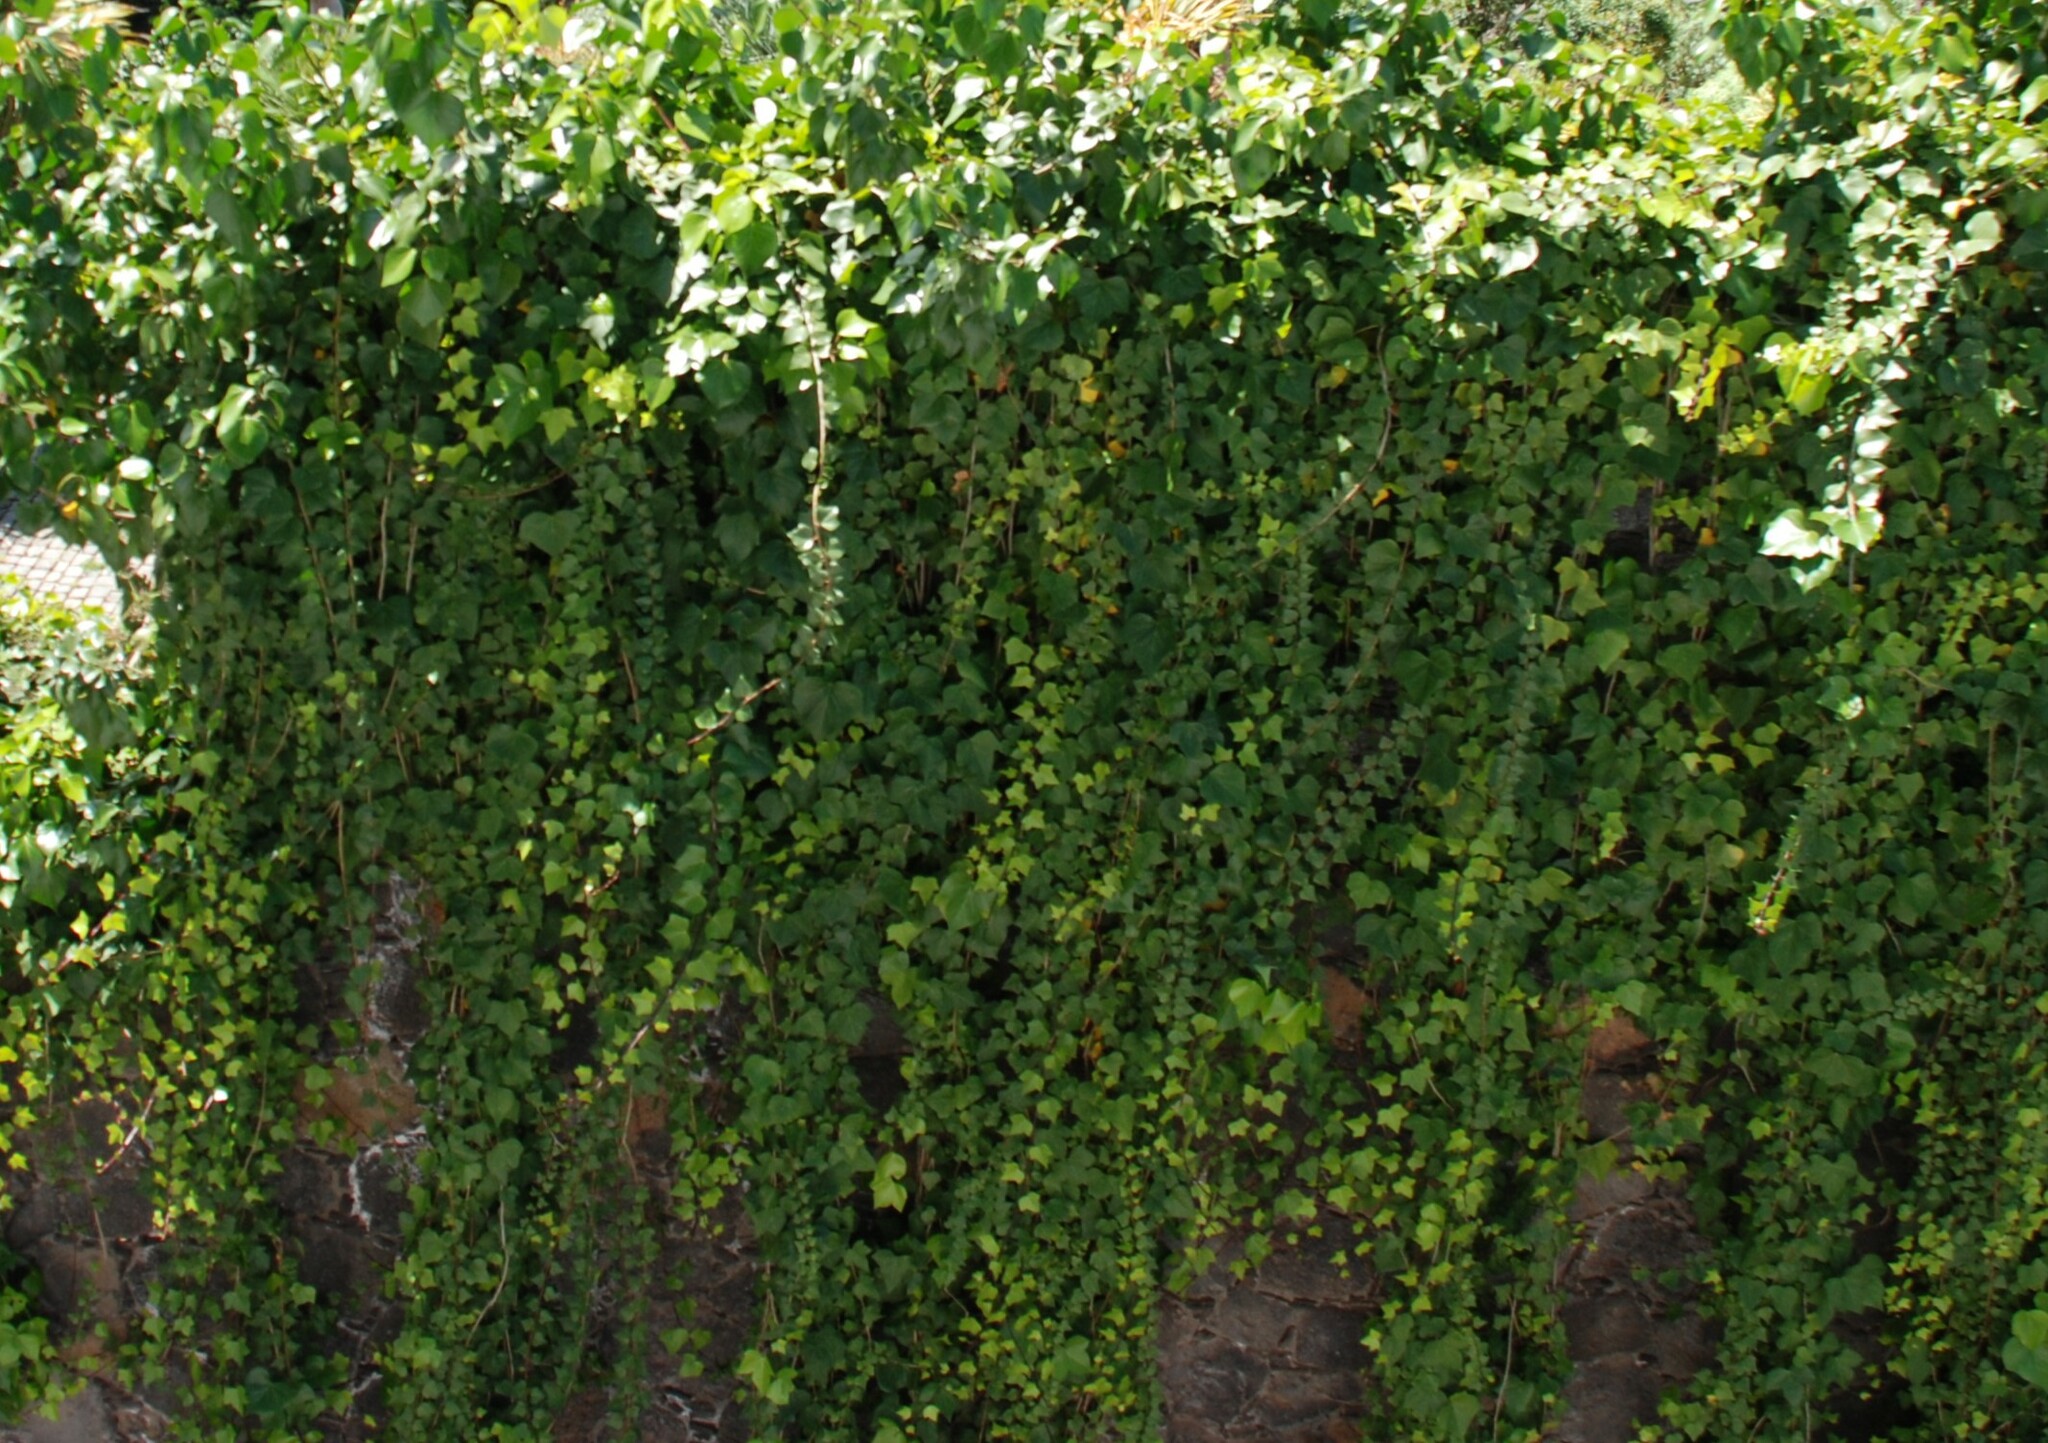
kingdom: Plantae
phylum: Tracheophyta
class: Magnoliopsida
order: Apiales
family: Araliaceae
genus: Hedera
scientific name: Hedera canariensis
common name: Madeira ivy
